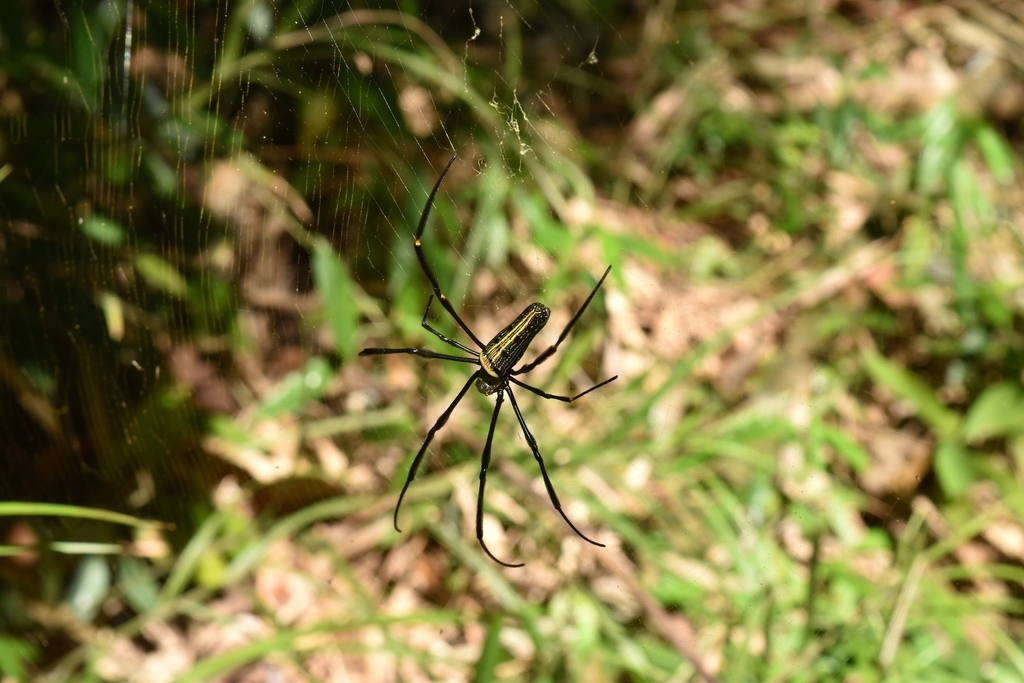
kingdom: Animalia
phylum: Arthropoda
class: Arachnida
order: Araneae
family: Araneidae
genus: Nephila
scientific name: Nephila pilipes
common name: Giant golden orb weaver
